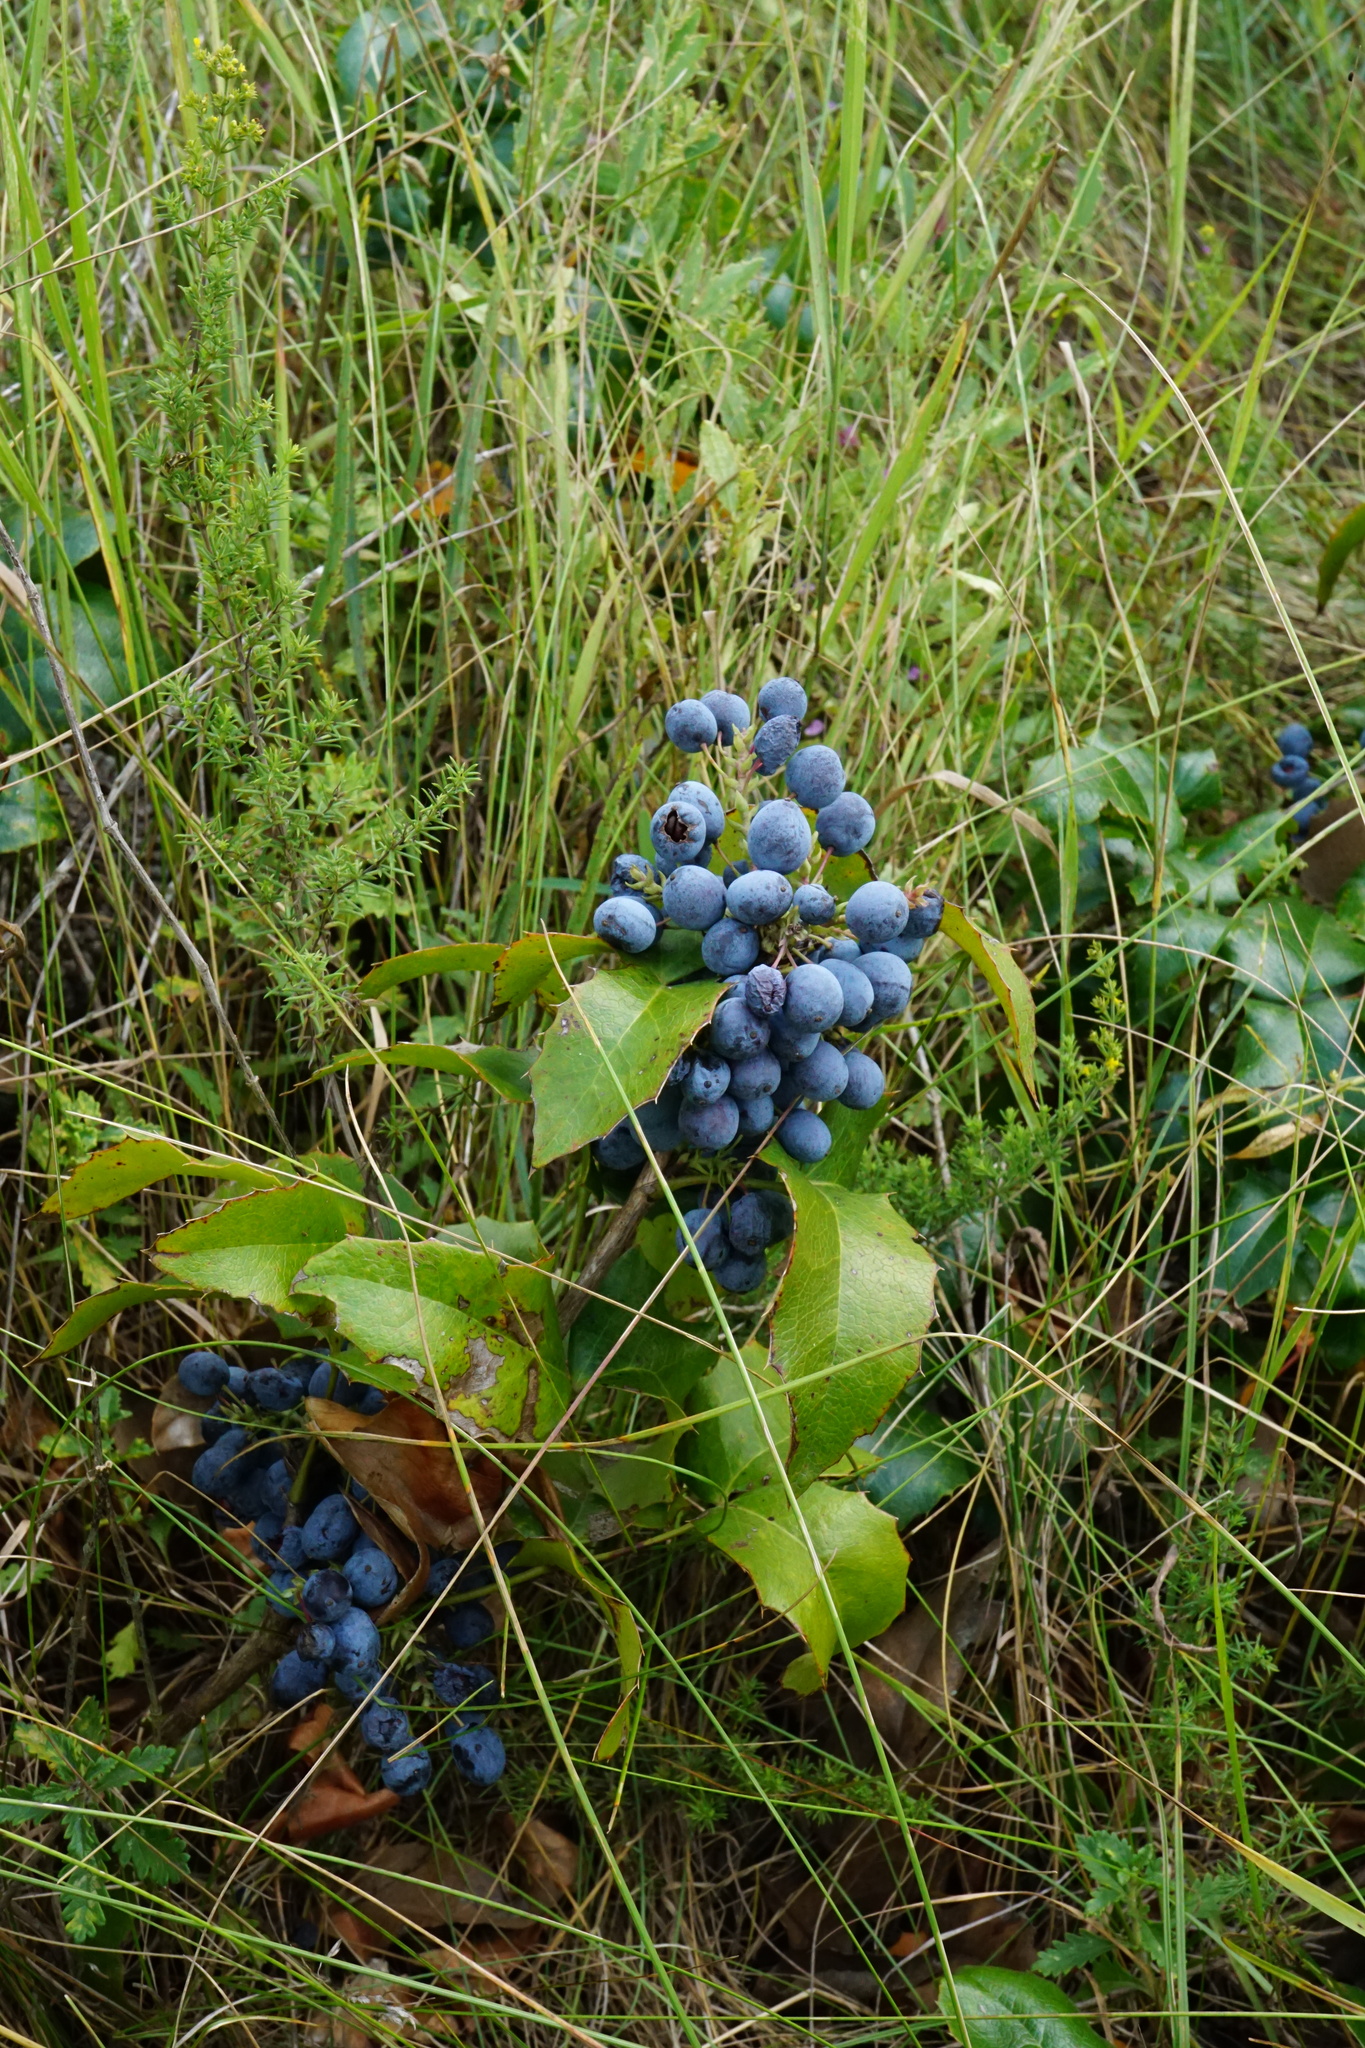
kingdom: Plantae
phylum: Tracheophyta
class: Magnoliopsida
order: Ranunculales
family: Berberidaceae
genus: Mahonia
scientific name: Mahonia aquifolium
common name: Oregon-grape
